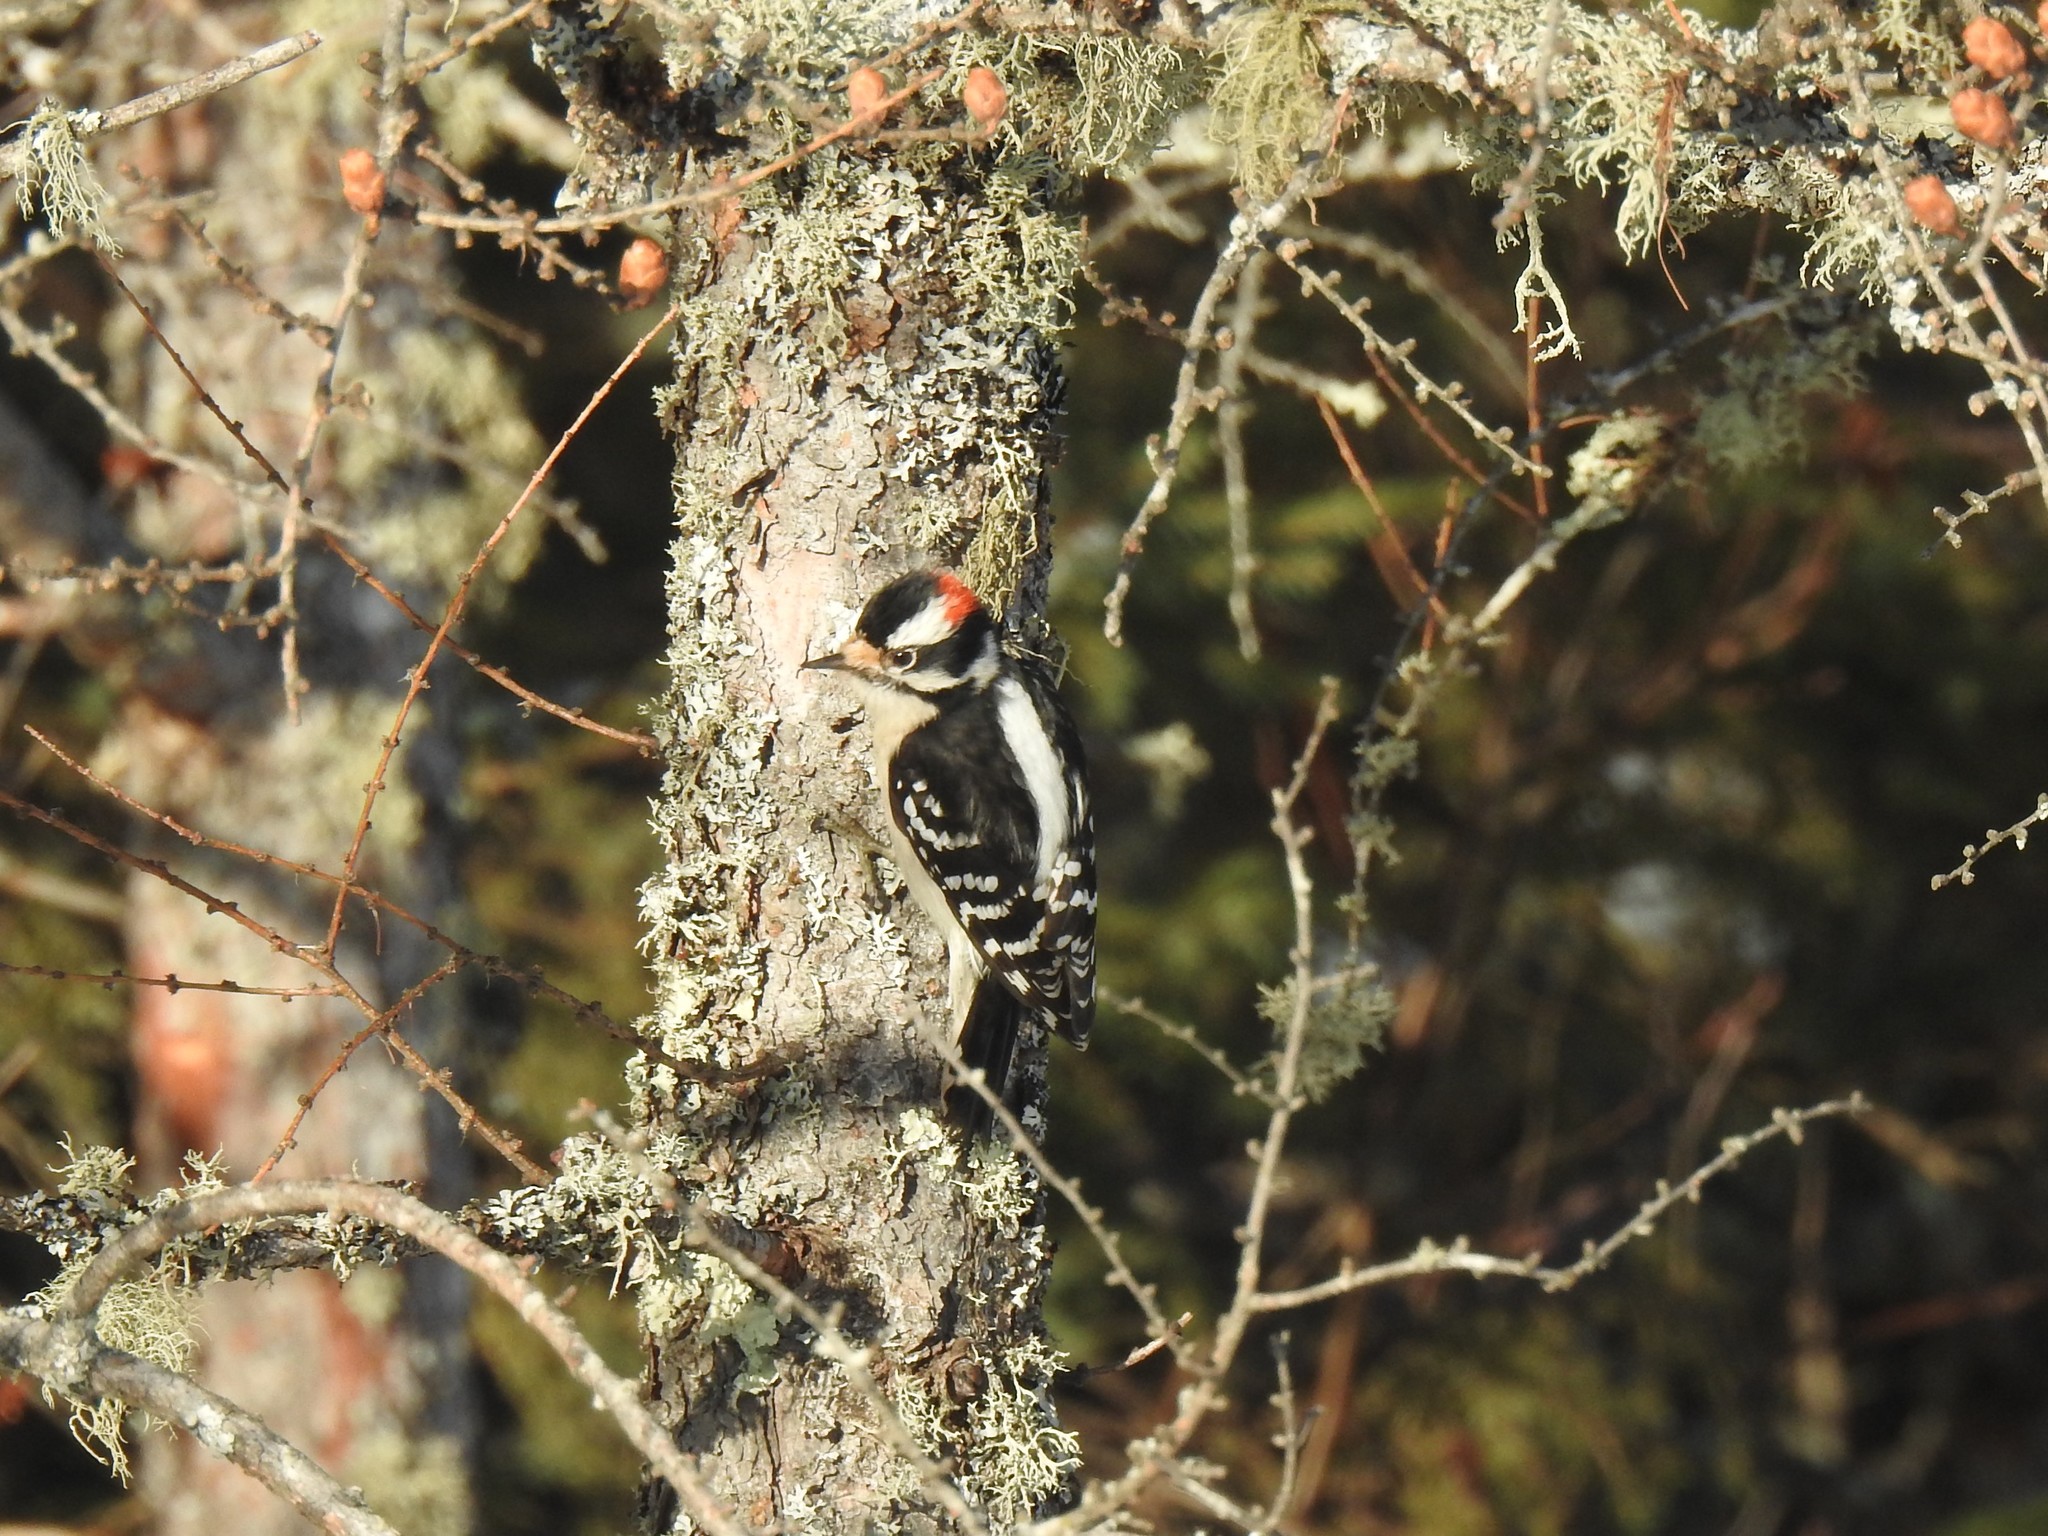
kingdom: Animalia
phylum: Chordata
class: Aves
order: Piciformes
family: Picidae
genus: Dryobates
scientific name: Dryobates pubescens
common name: Downy woodpecker
